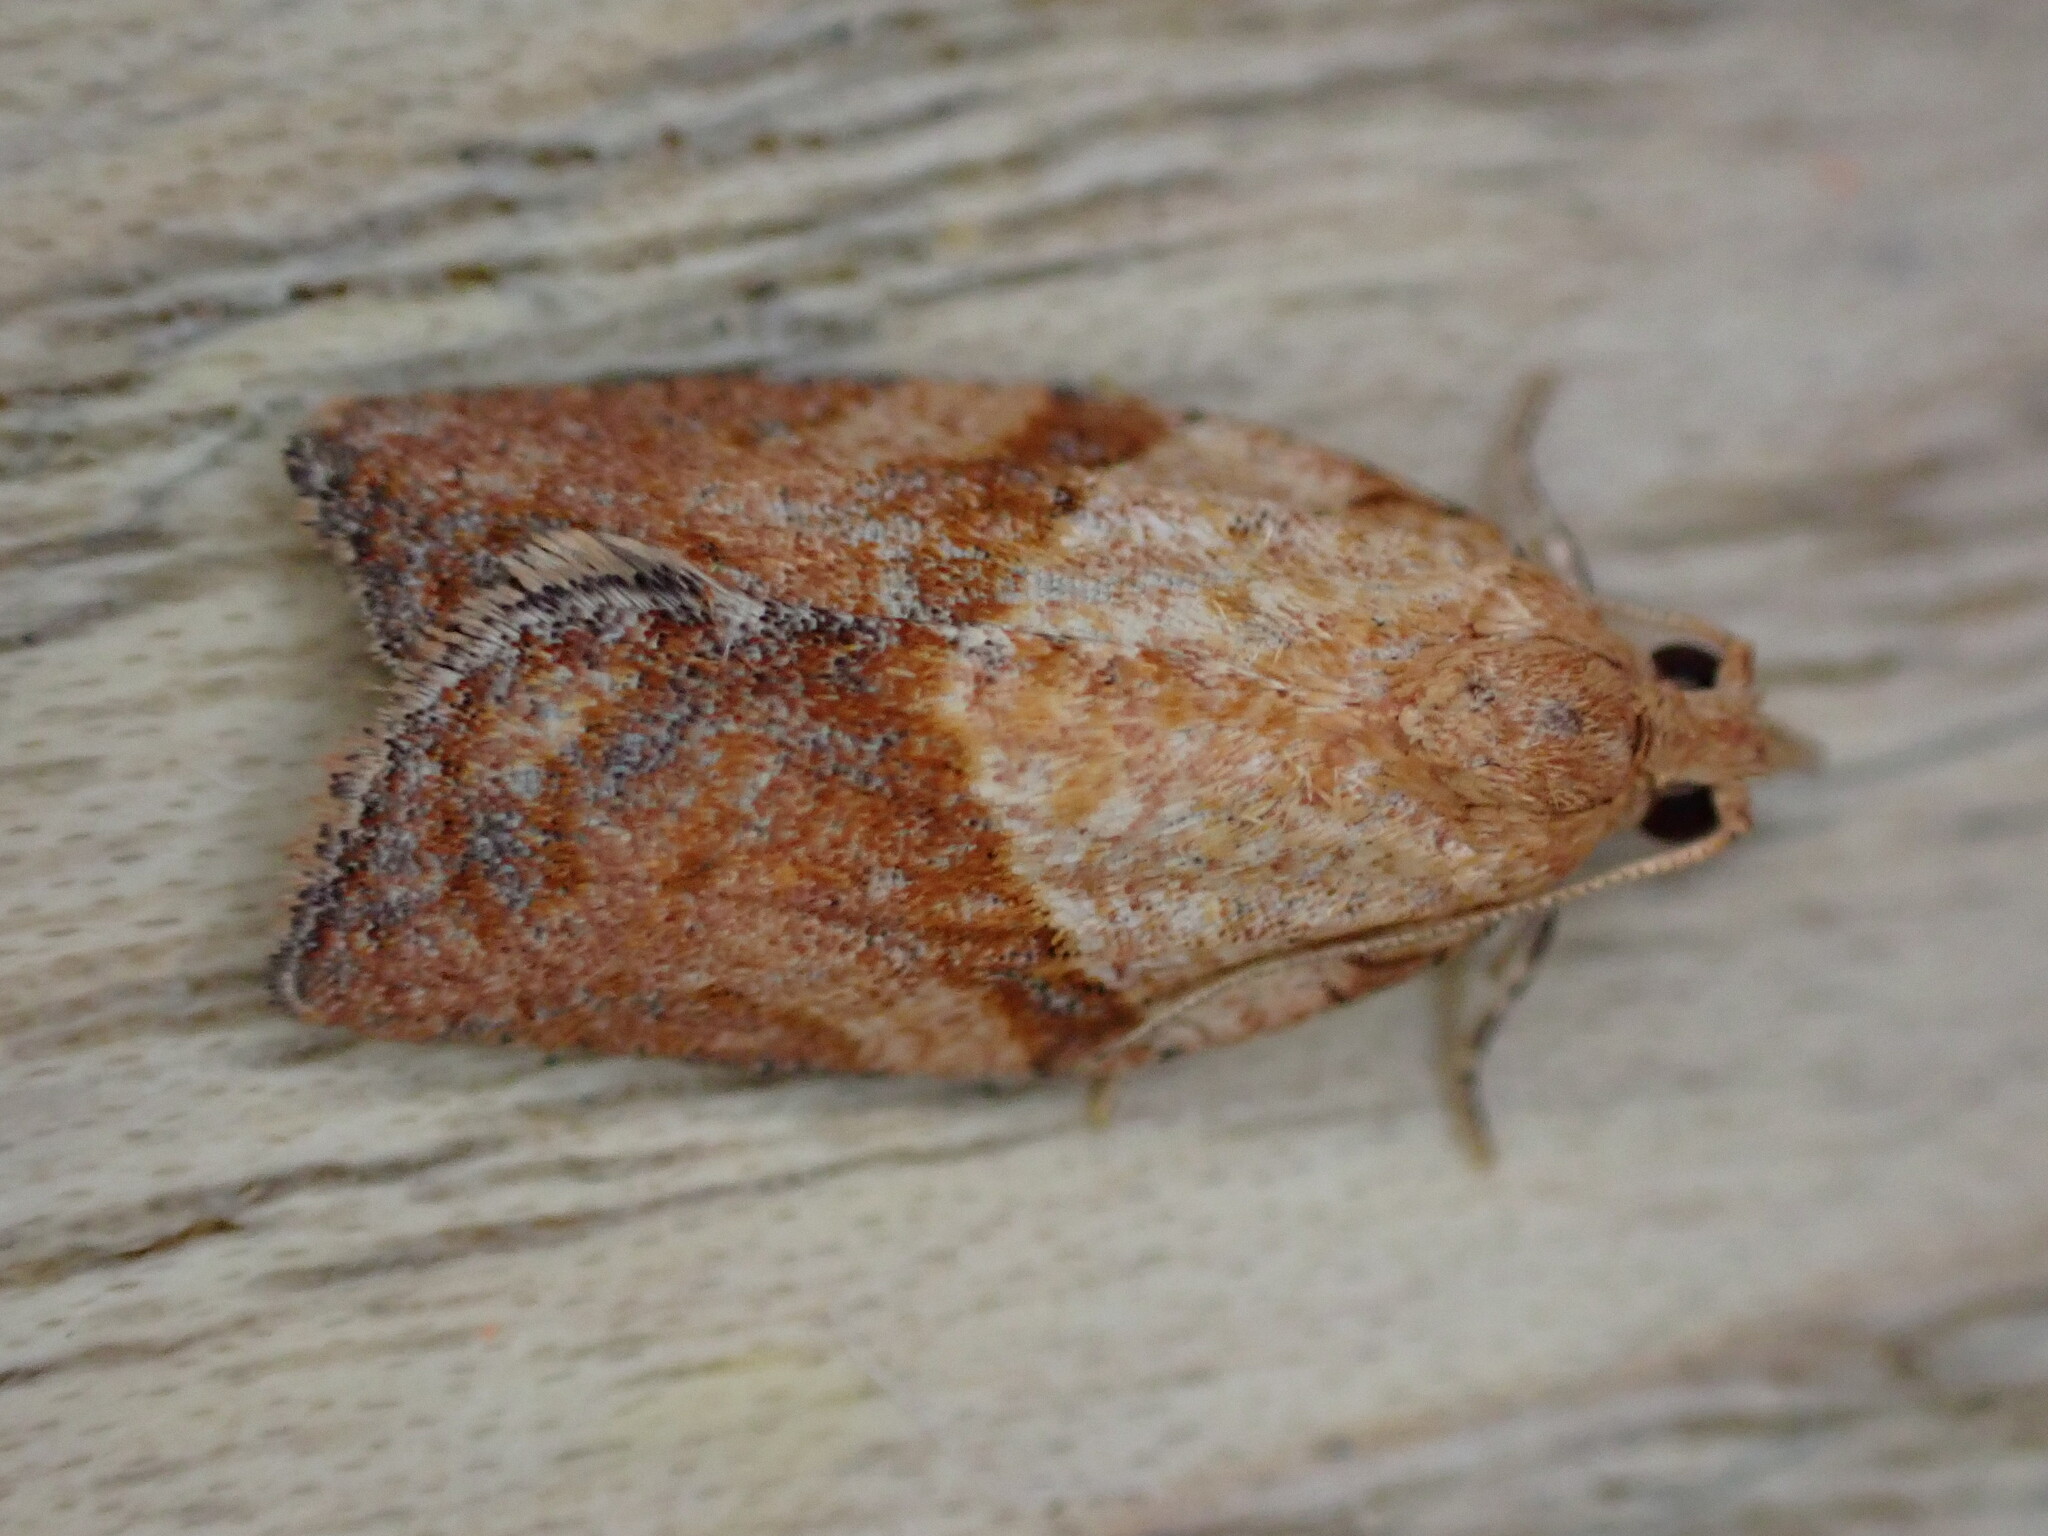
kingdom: Animalia
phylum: Arthropoda
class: Insecta
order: Lepidoptera
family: Tortricidae
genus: Epiphyas
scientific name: Epiphyas postvittana
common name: Light brown apple moth
